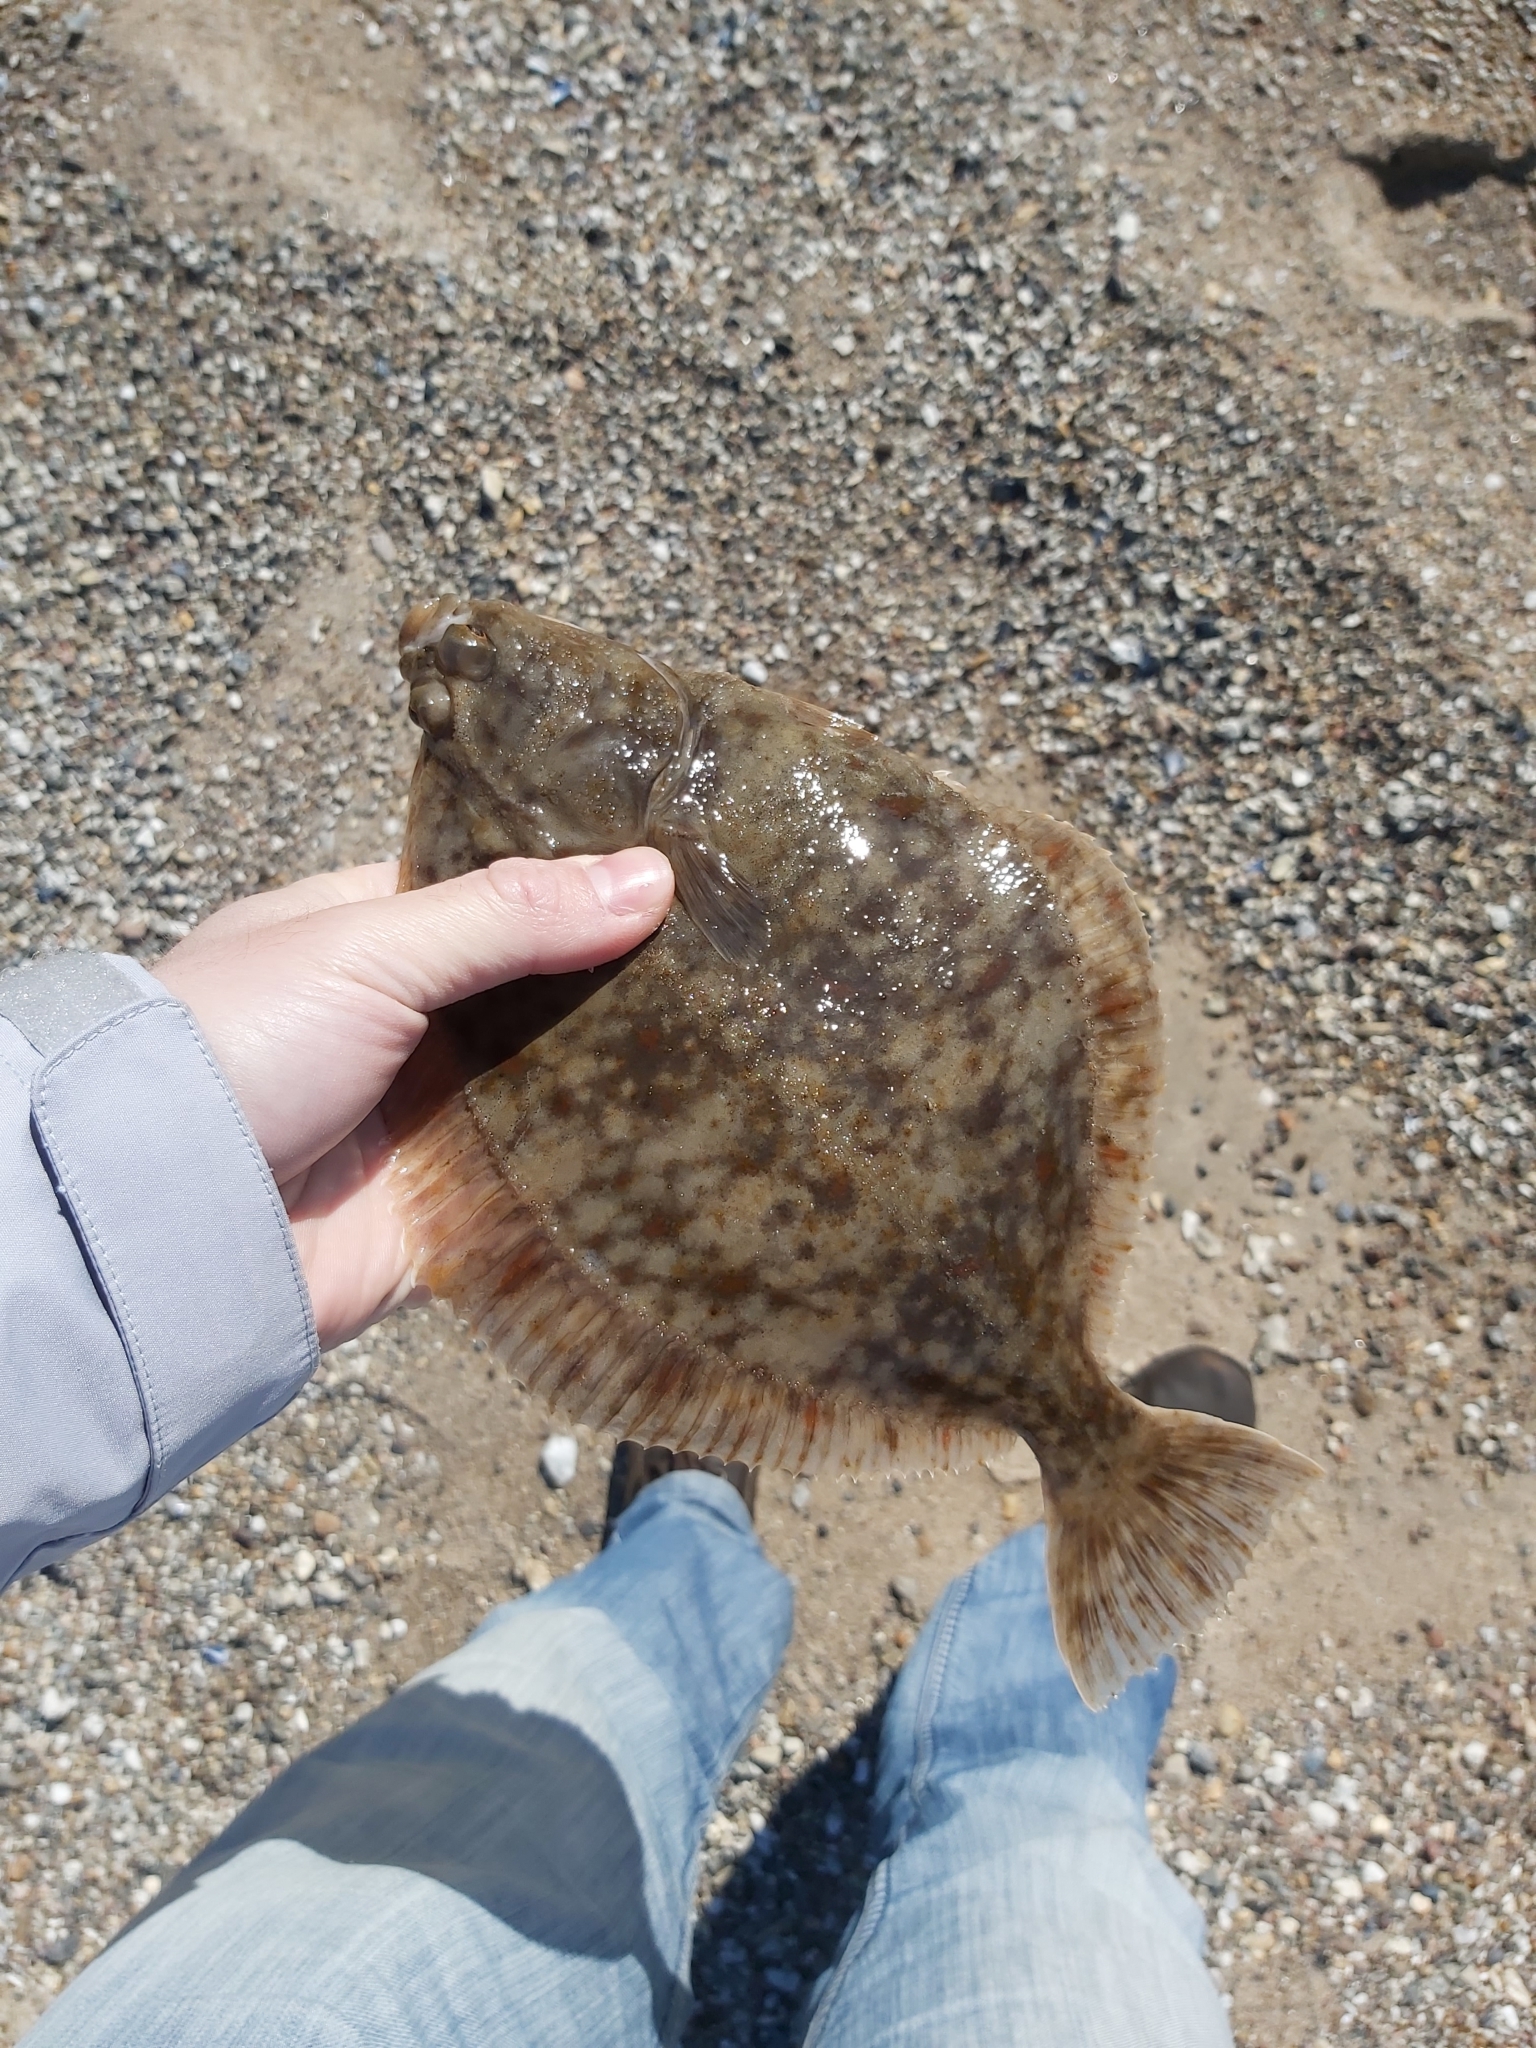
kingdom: Animalia
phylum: Chordata
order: Pleuronectiformes
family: Pleuronectidae
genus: Platichthys
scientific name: Platichthys flesus
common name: European flounder
